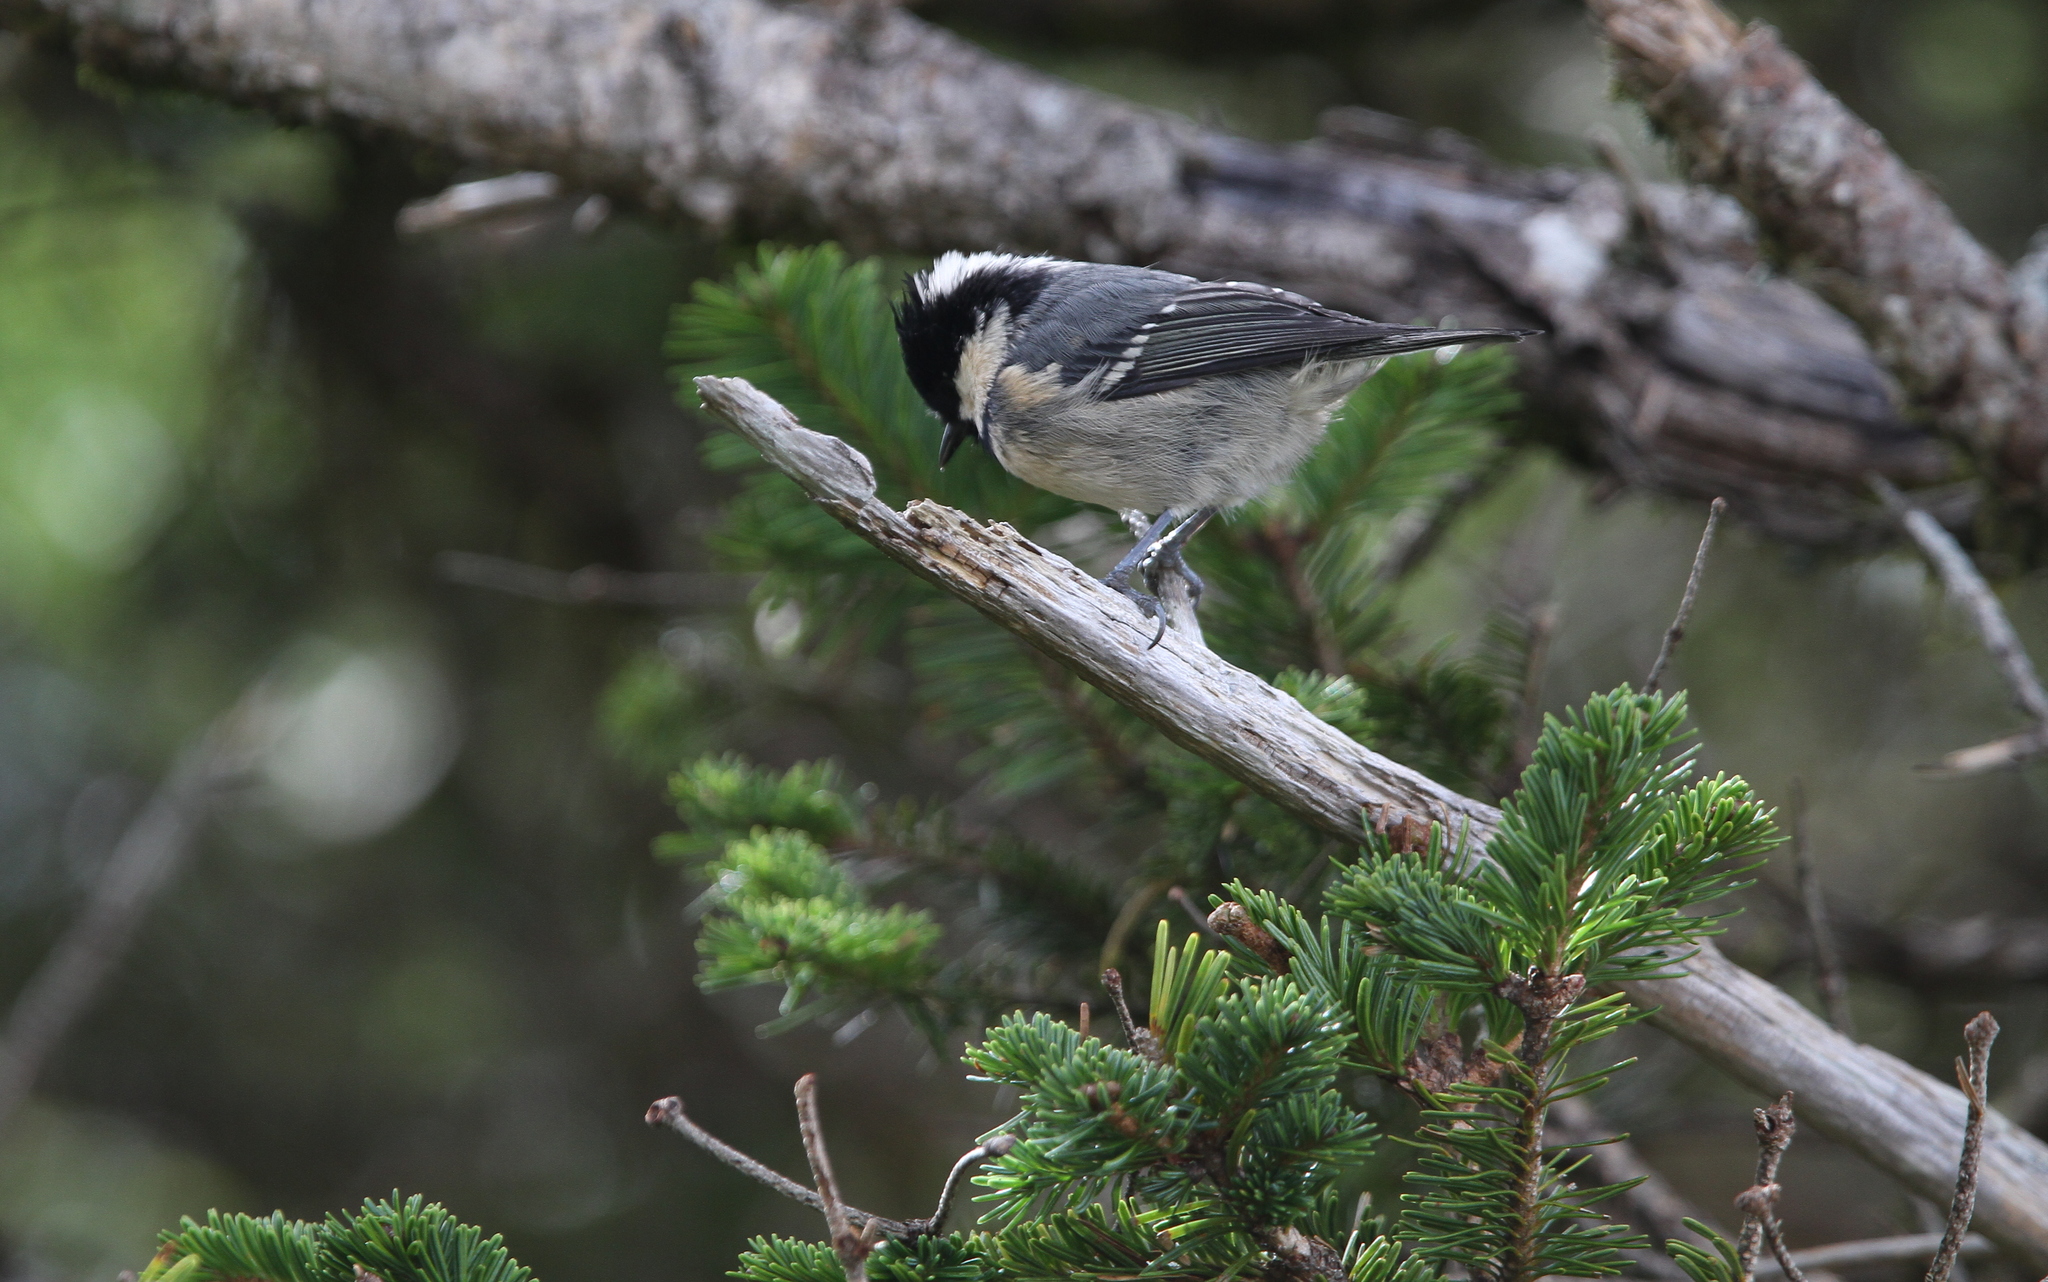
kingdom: Animalia
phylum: Chordata
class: Aves
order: Passeriformes
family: Paridae
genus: Periparus
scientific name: Periparus ater
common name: Coal tit
